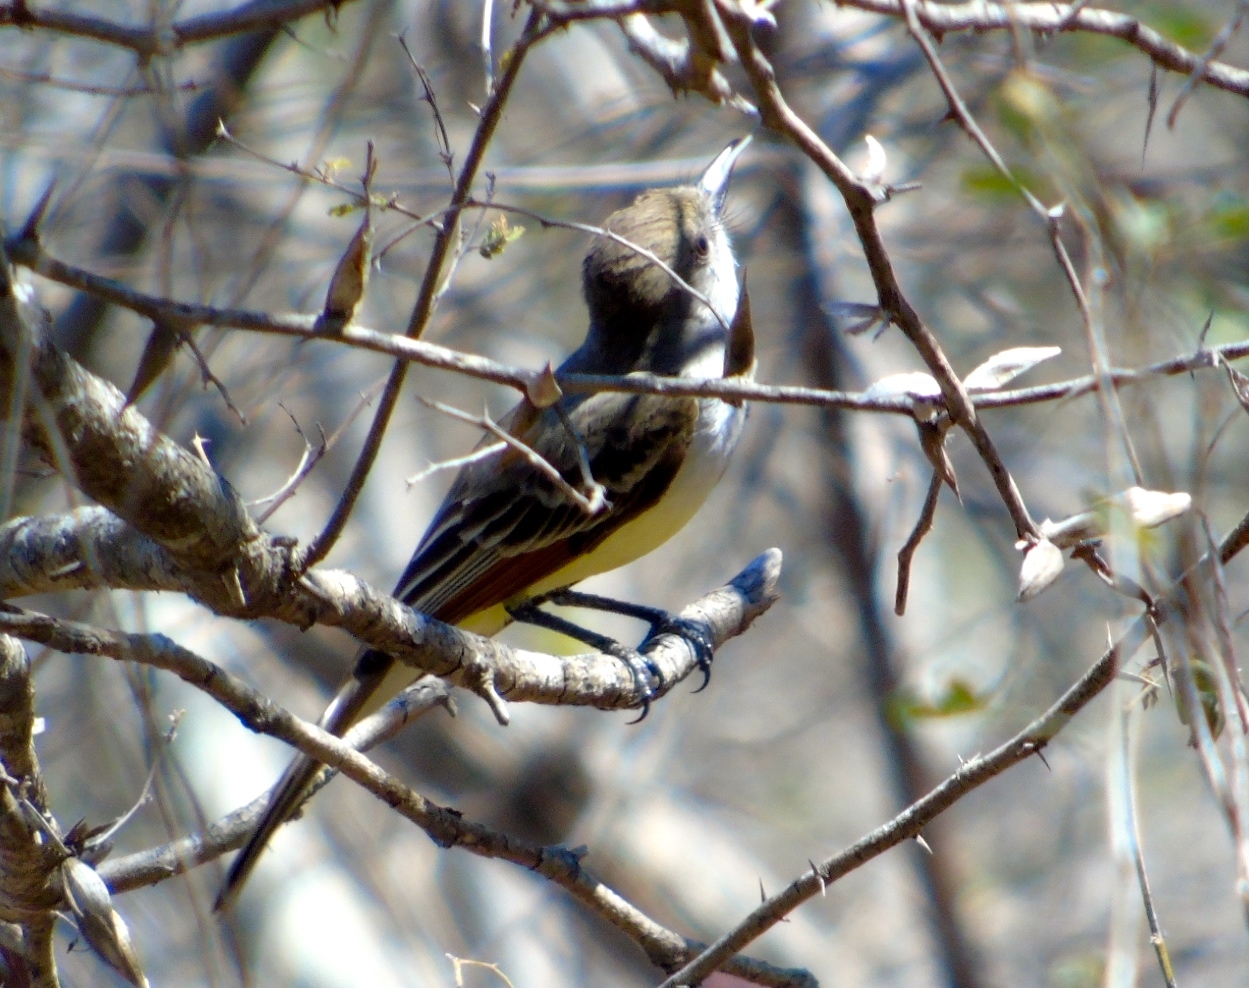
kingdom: Animalia
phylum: Chordata
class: Aves
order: Passeriformes
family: Tyrannidae
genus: Myiarchus
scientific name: Myiarchus
